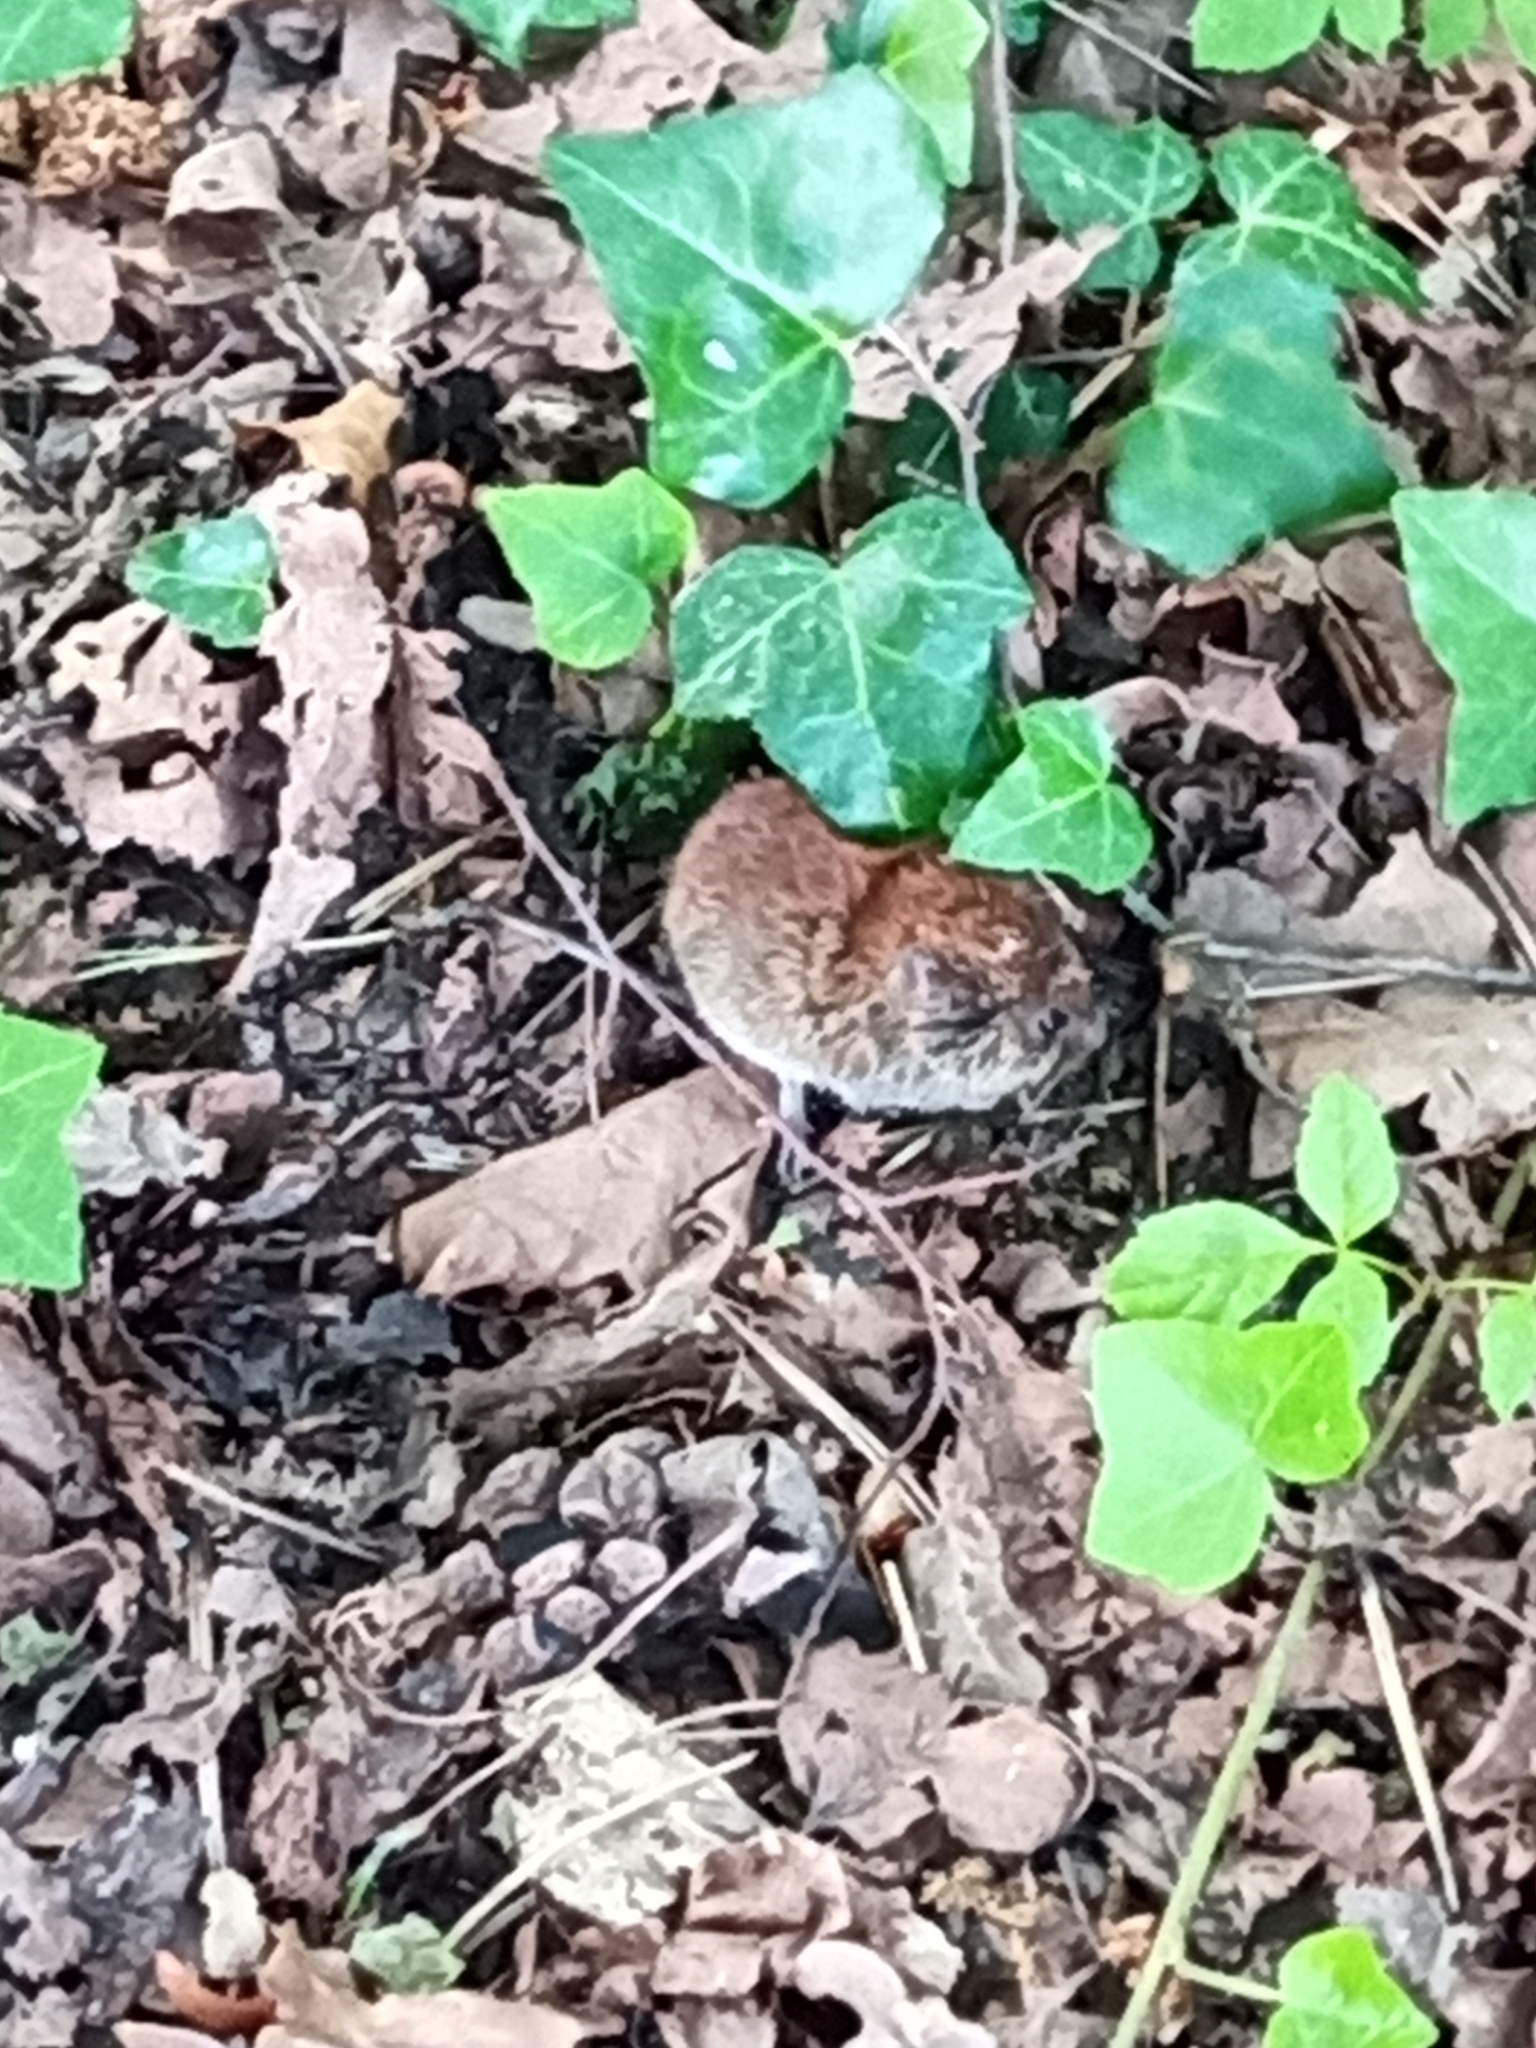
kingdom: Animalia
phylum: Chordata
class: Mammalia
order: Rodentia
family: Cricetidae
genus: Myodes
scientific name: Myodes glareolus
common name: Bank vole
